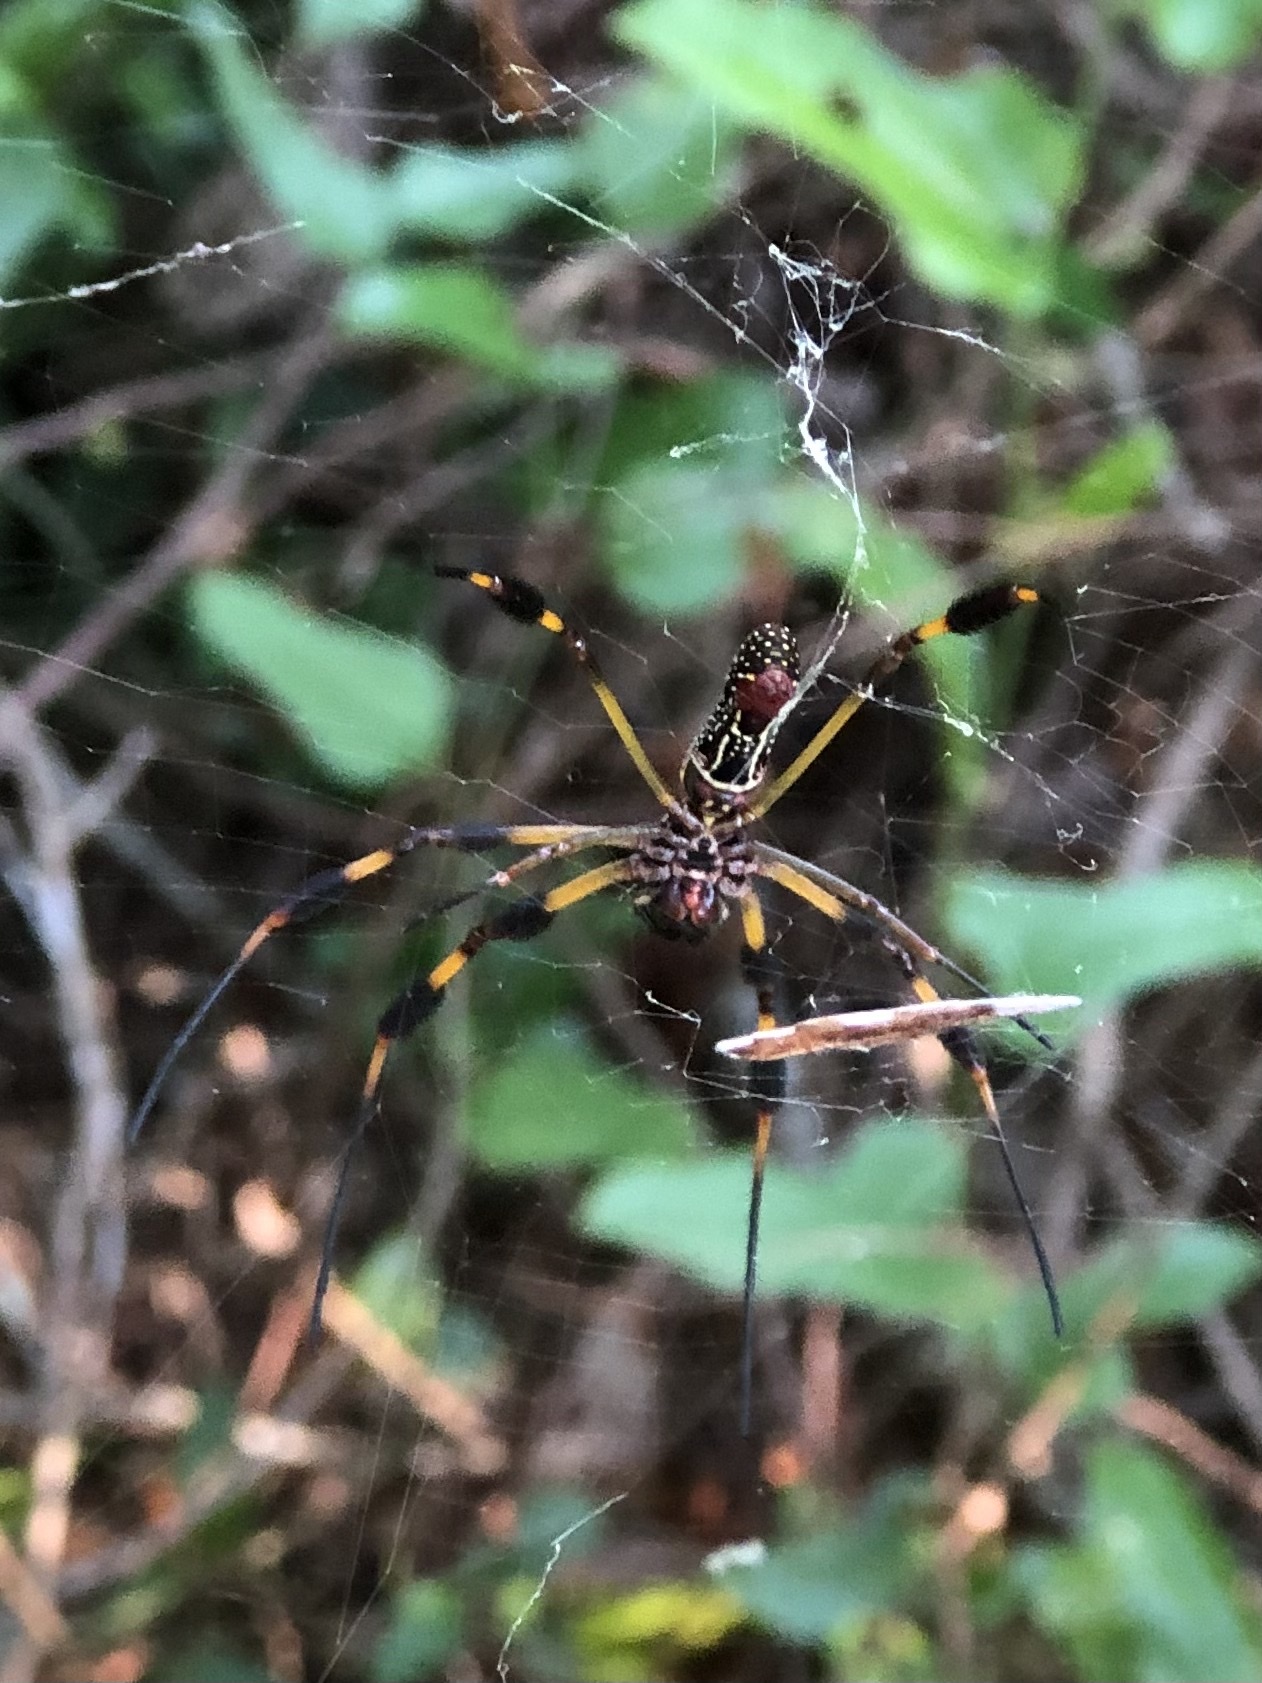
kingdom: Animalia
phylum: Arthropoda
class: Arachnida
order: Araneae
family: Araneidae
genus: Trichonephila
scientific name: Trichonephila clavipes
